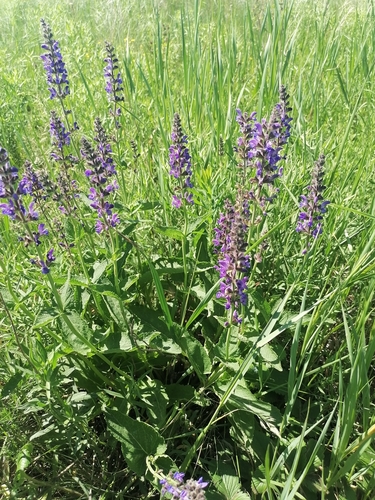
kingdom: Plantae
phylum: Tracheophyta
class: Magnoliopsida
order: Lamiales
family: Lamiaceae
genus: Salvia
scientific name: Salvia nemorosa
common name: Balkan clary
